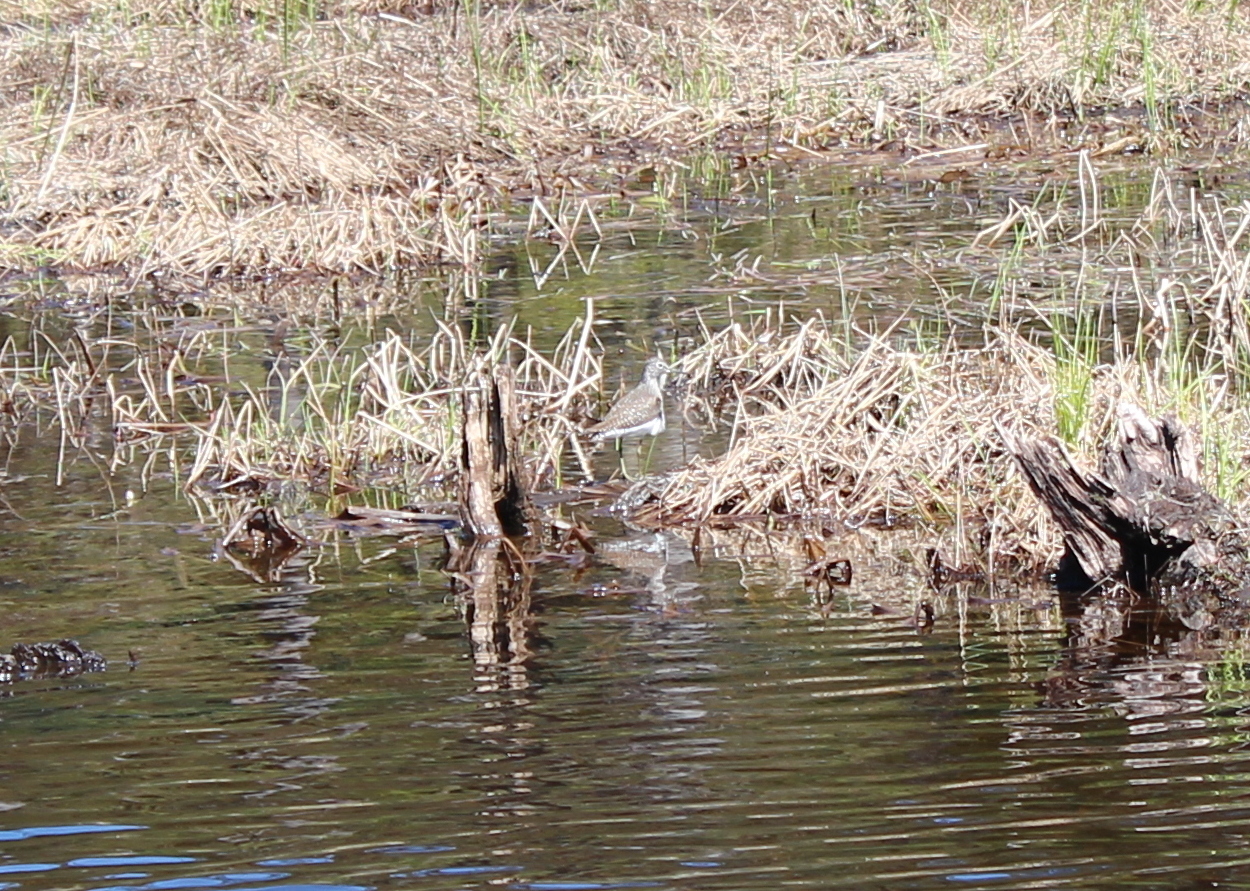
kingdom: Animalia
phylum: Chordata
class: Aves
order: Charadriiformes
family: Scolopacidae
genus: Tringa
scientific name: Tringa solitaria
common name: Solitary sandpiper
